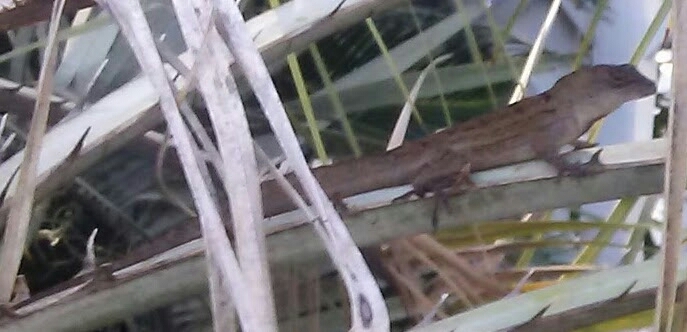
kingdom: Animalia
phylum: Chordata
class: Squamata
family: Dactyloidae
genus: Anolis
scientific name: Anolis sagrei
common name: Brown anole
